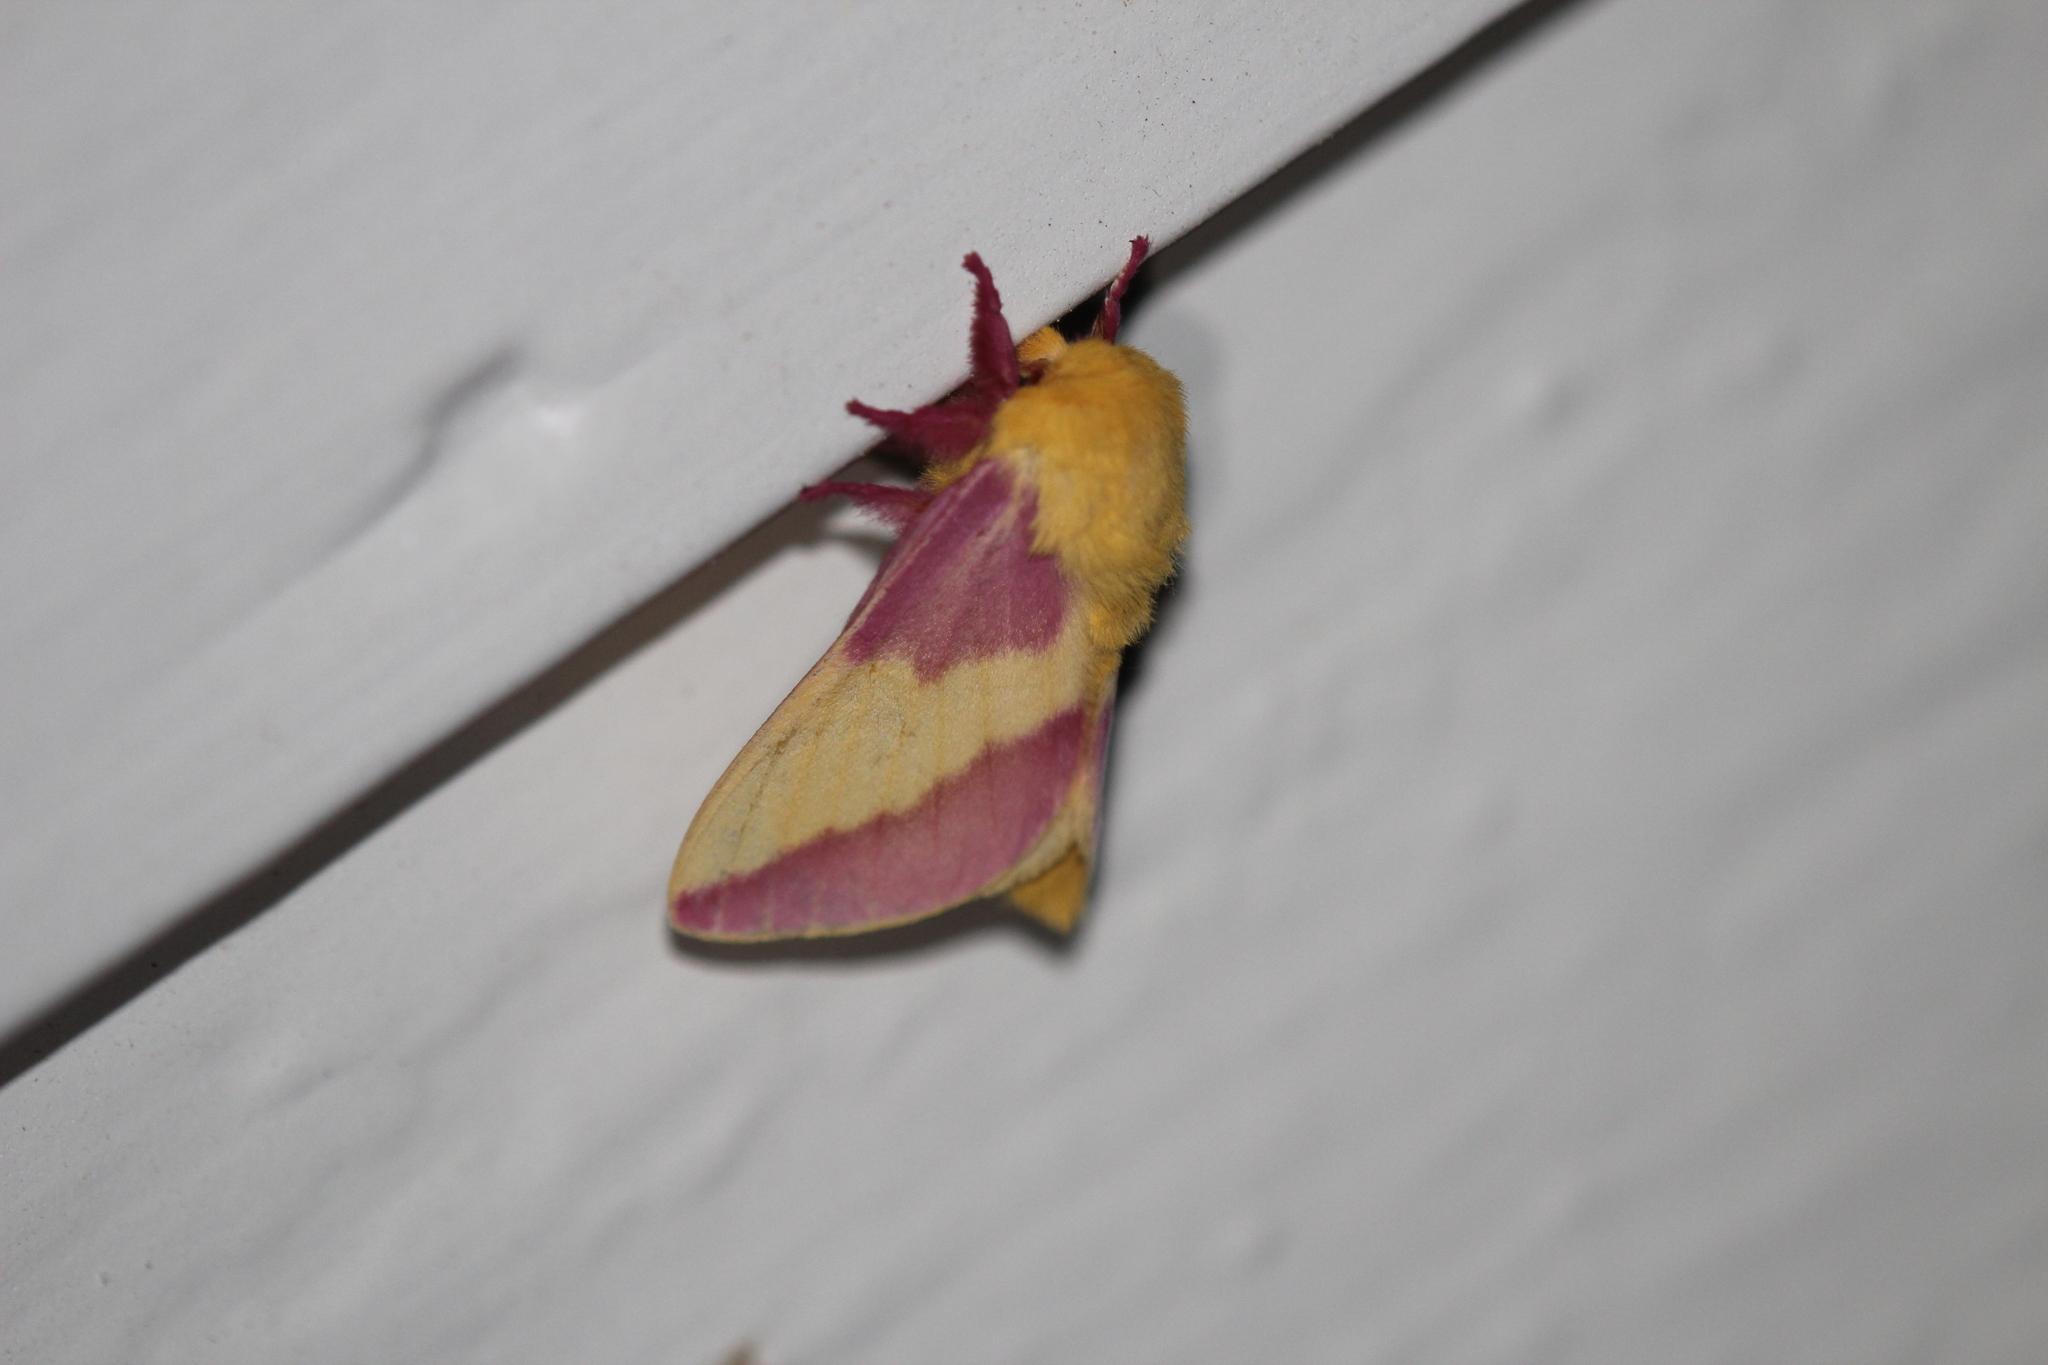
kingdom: Animalia
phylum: Arthropoda
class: Insecta
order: Lepidoptera
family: Saturniidae
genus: Dryocampa
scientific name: Dryocampa rubicunda
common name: Rosy maple moth
